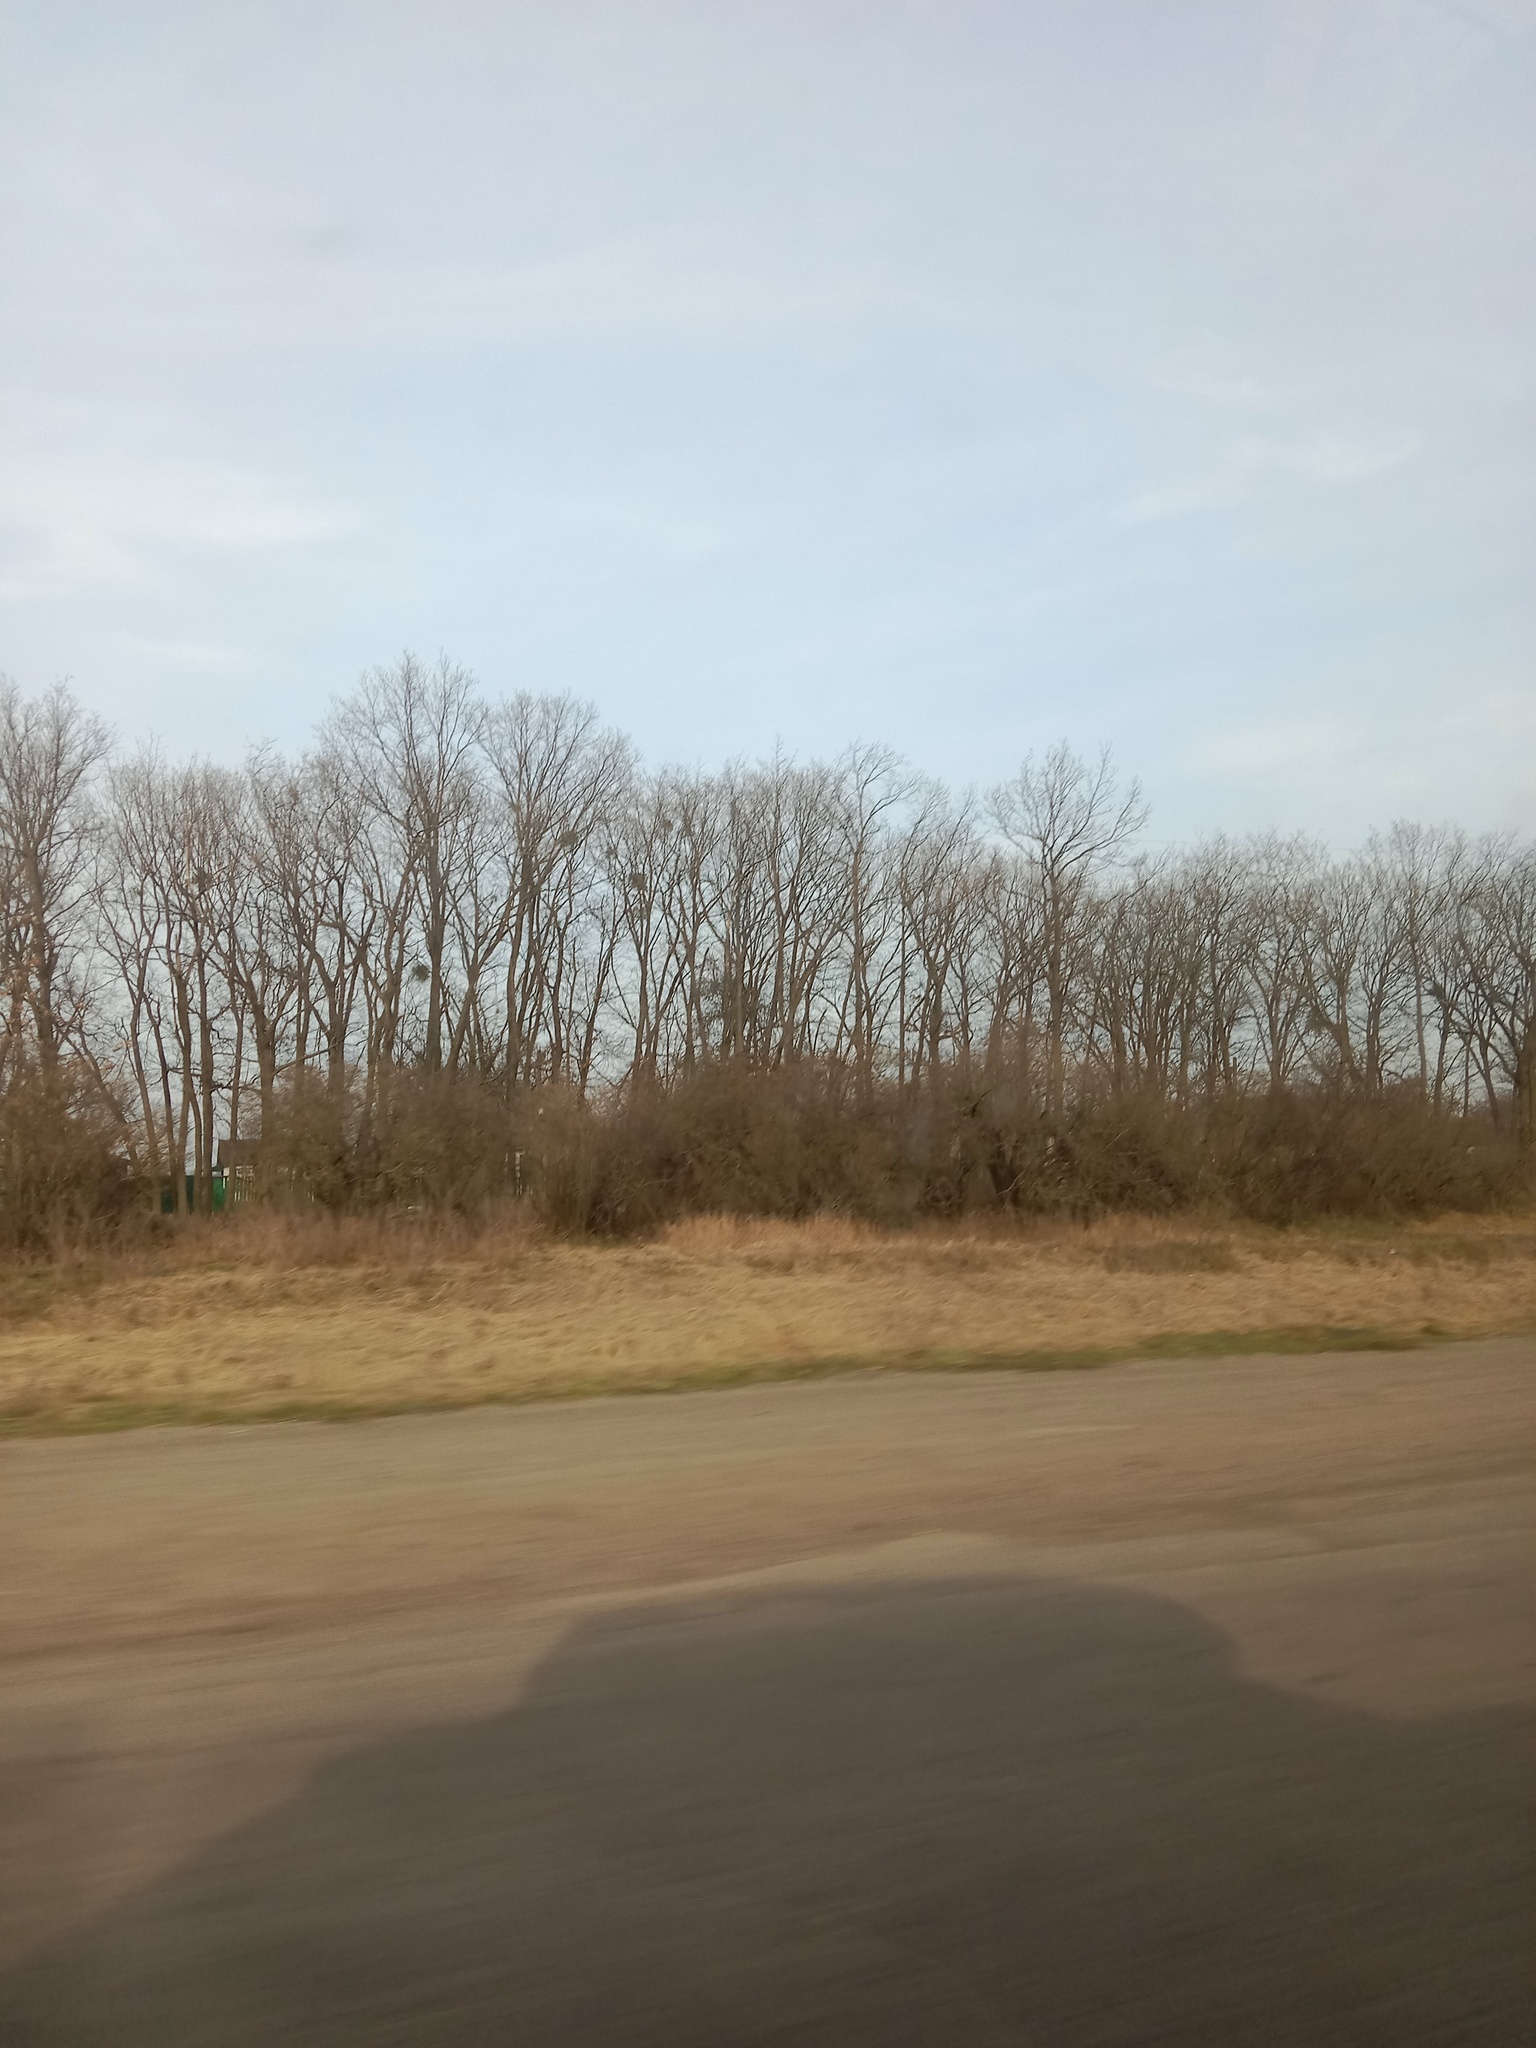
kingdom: Plantae
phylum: Tracheophyta
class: Magnoliopsida
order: Santalales
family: Viscaceae
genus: Viscum
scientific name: Viscum album
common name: Mistletoe
